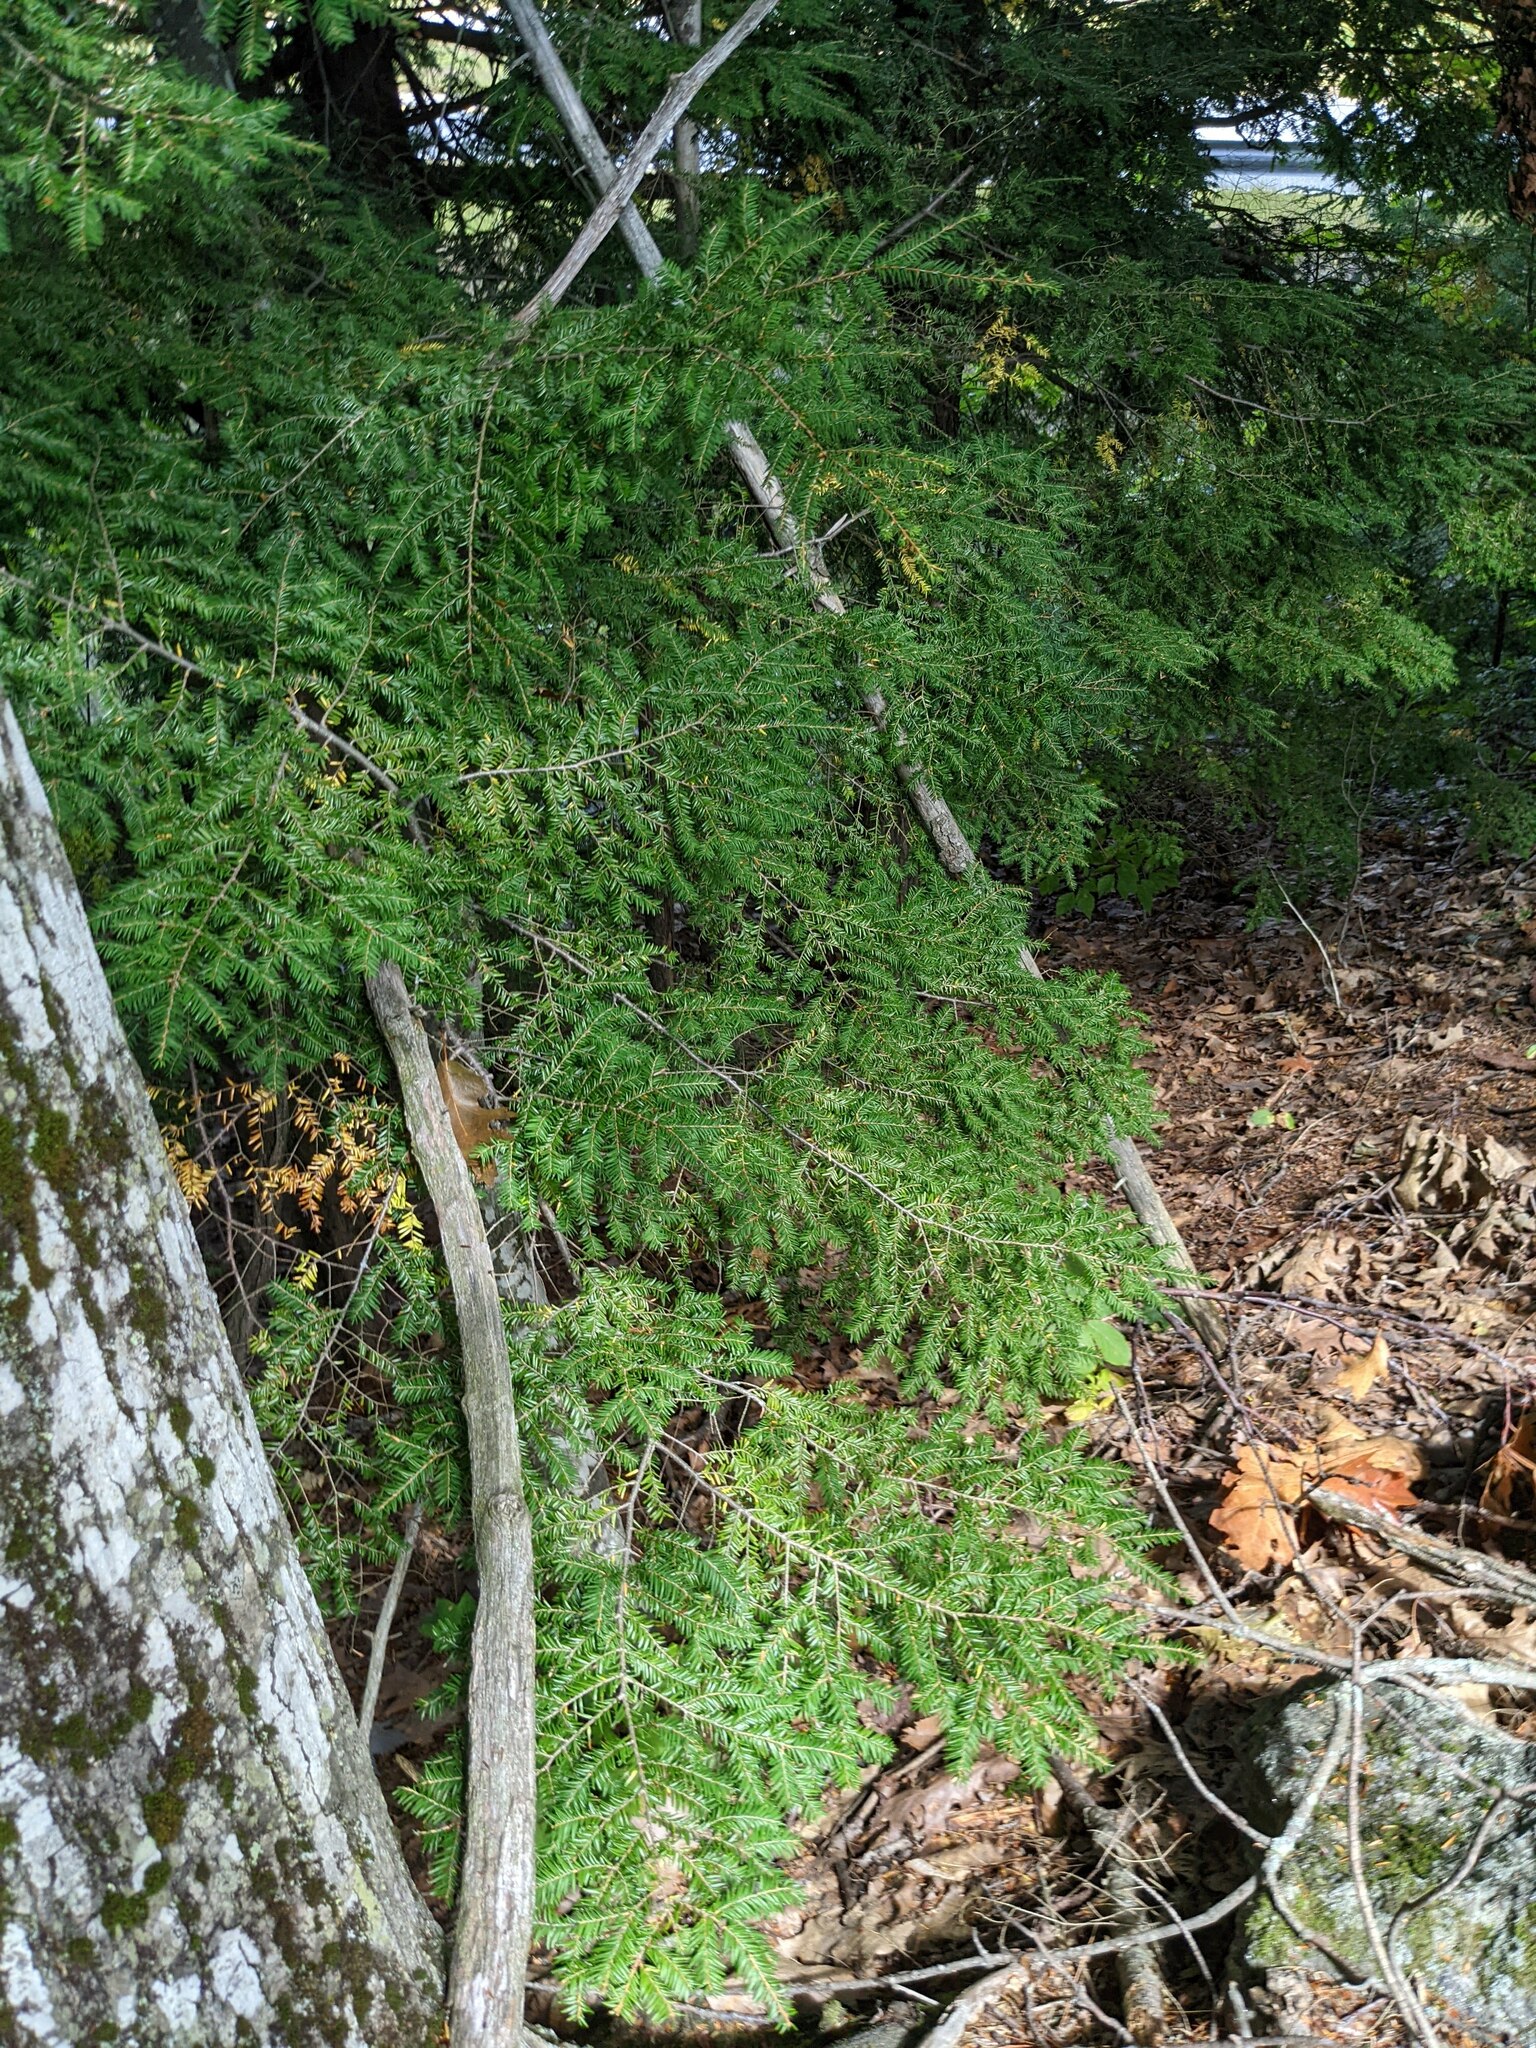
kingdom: Plantae
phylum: Tracheophyta
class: Pinopsida
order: Pinales
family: Pinaceae
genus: Tsuga
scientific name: Tsuga canadensis
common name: Eastern hemlock
